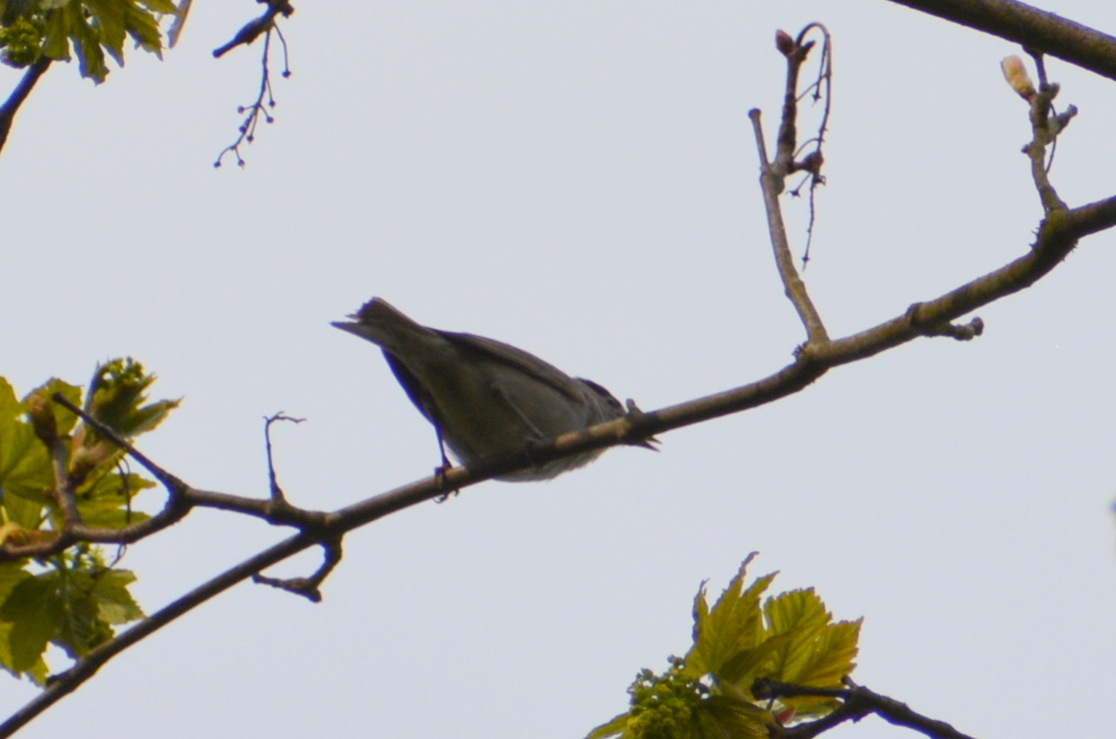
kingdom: Animalia
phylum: Chordata
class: Aves
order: Passeriformes
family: Sylviidae
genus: Sylvia
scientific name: Sylvia atricapilla
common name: Eurasian blackcap
